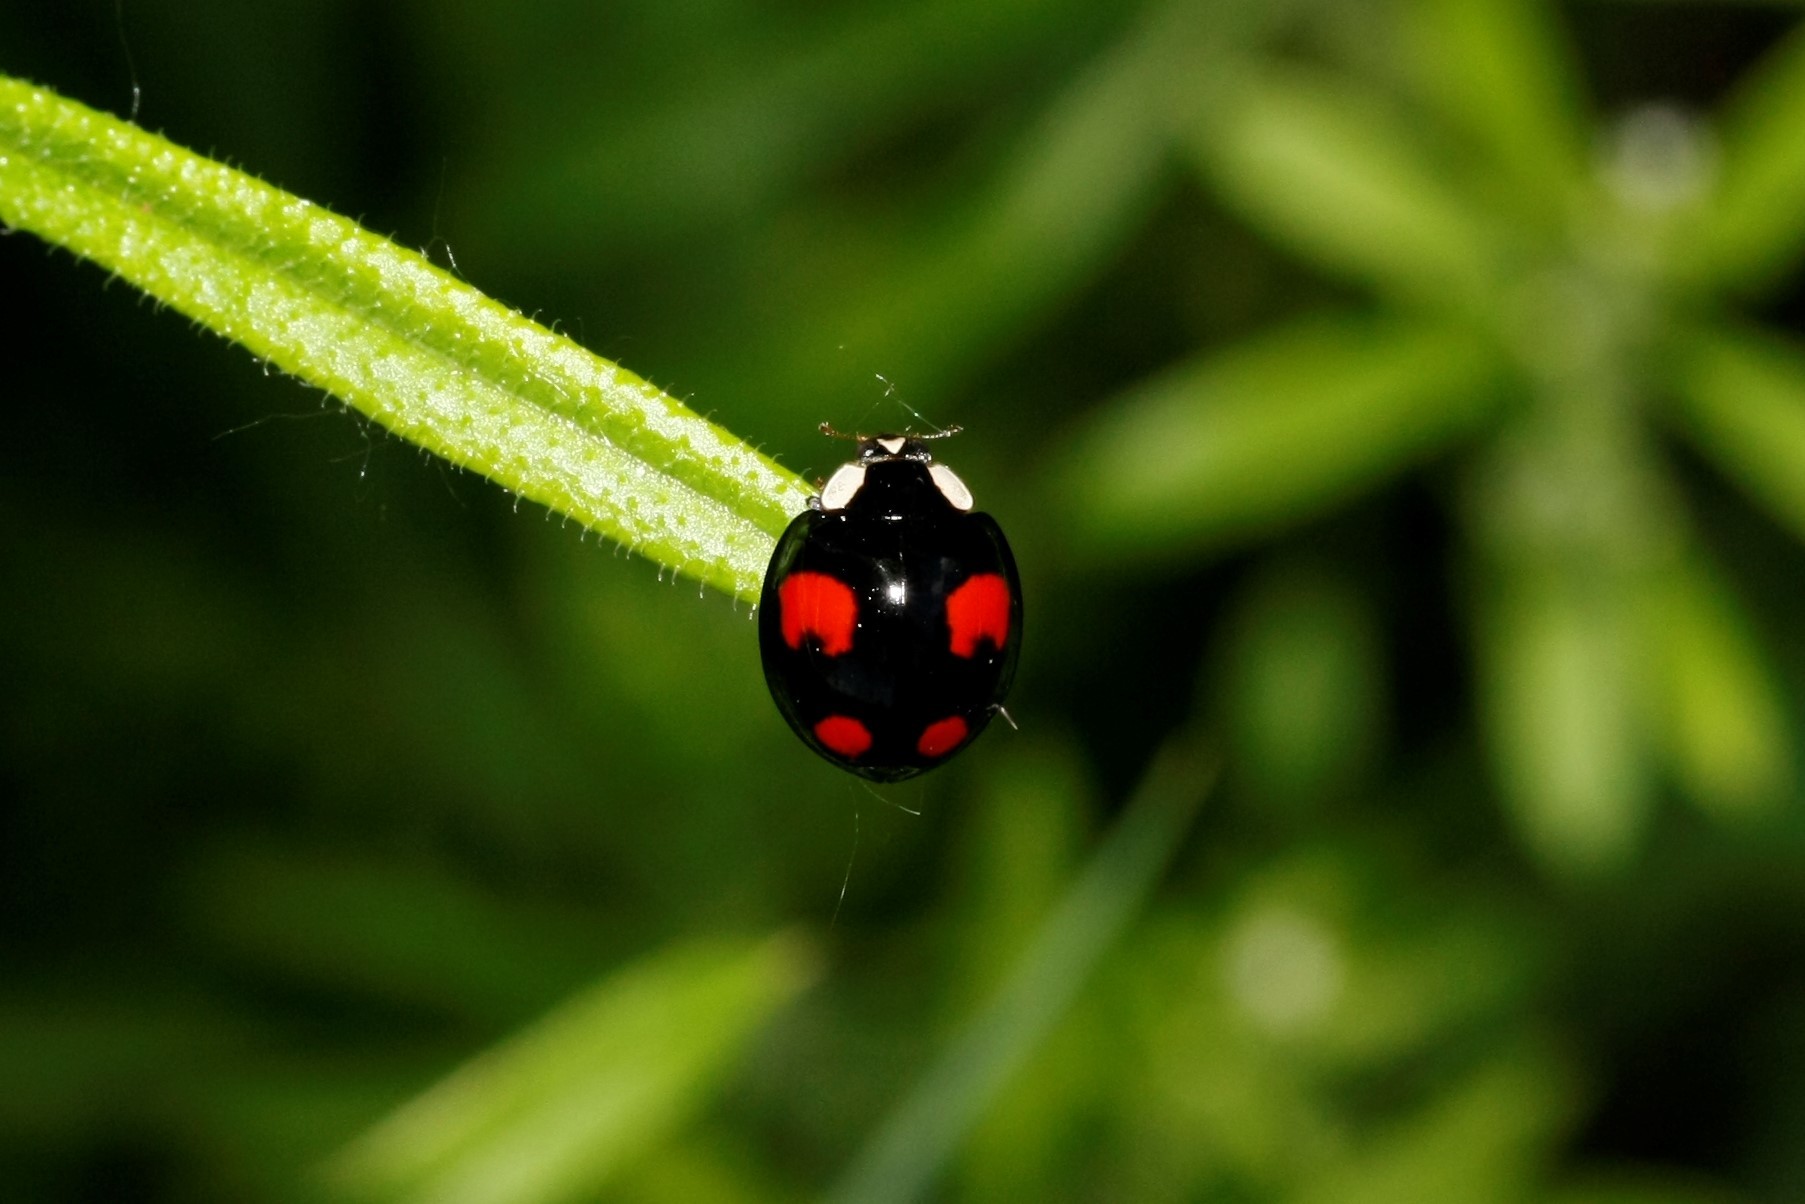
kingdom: Animalia
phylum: Arthropoda
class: Insecta
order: Coleoptera
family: Coccinellidae
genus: Harmonia
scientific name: Harmonia axyridis
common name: Harlequin ladybird
